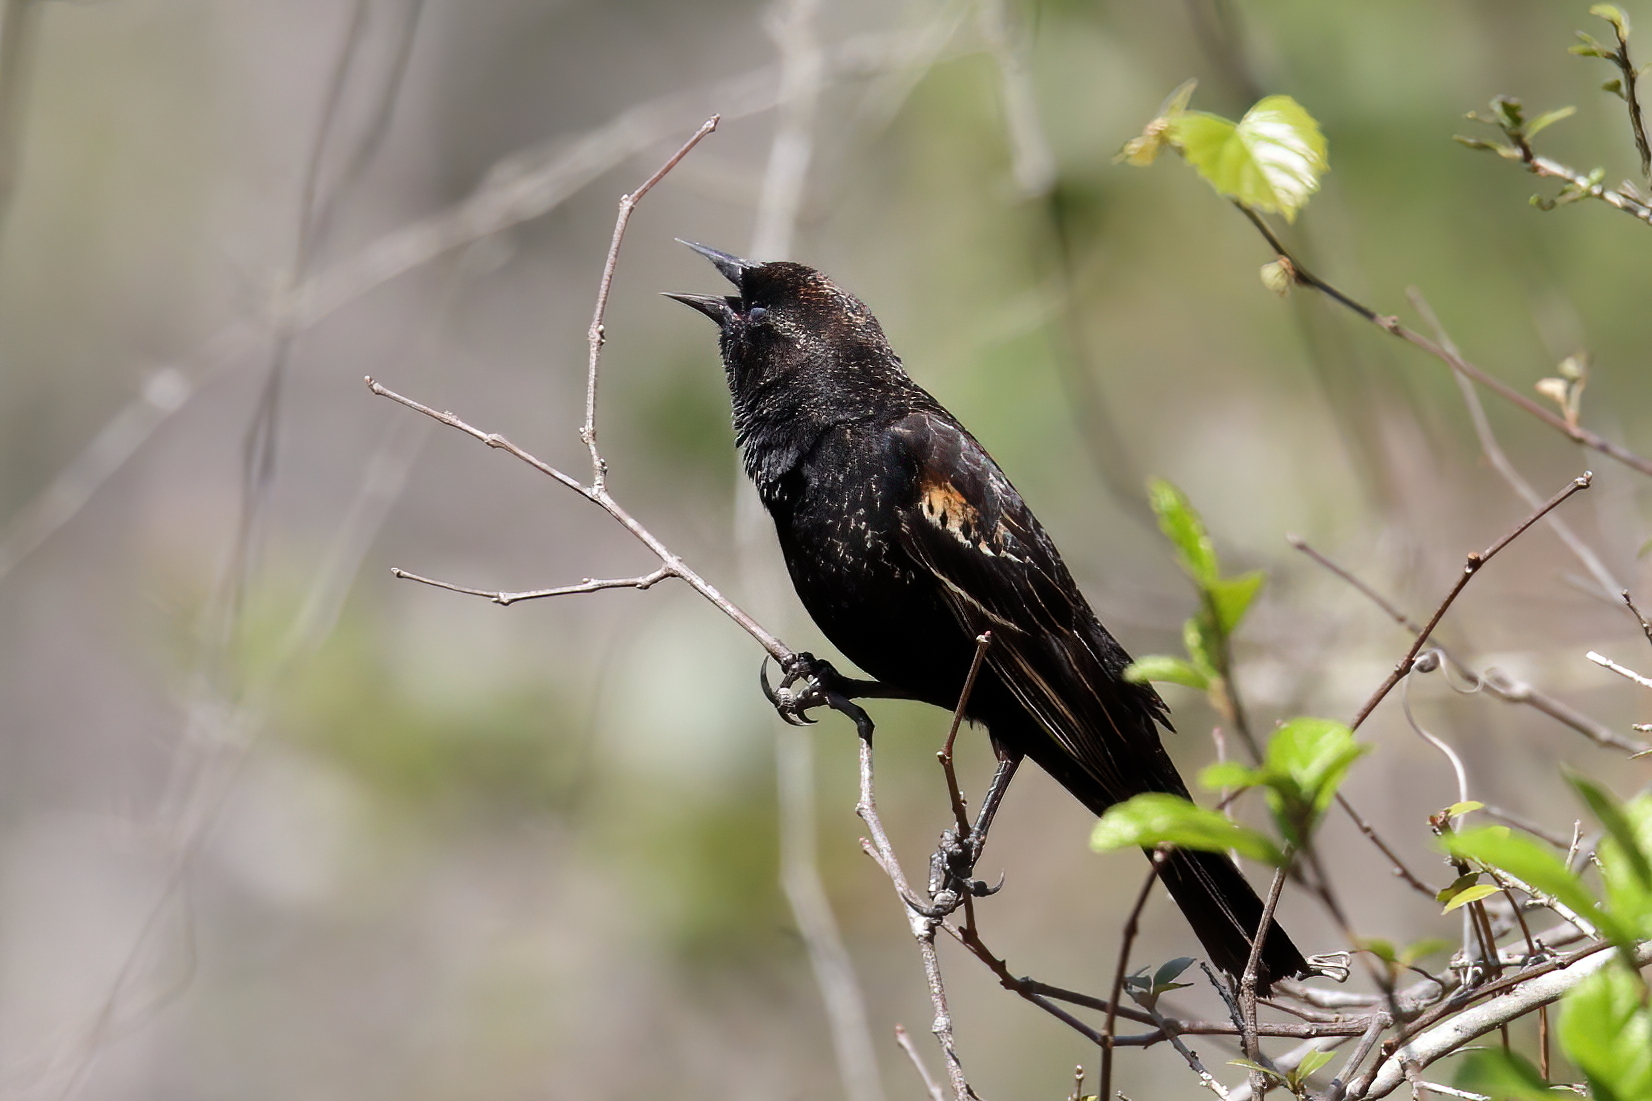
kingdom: Animalia
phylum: Chordata
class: Aves
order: Passeriformes
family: Icteridae
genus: Agelaius
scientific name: Agelaius phoeniceus
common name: Red-winged blackbird
